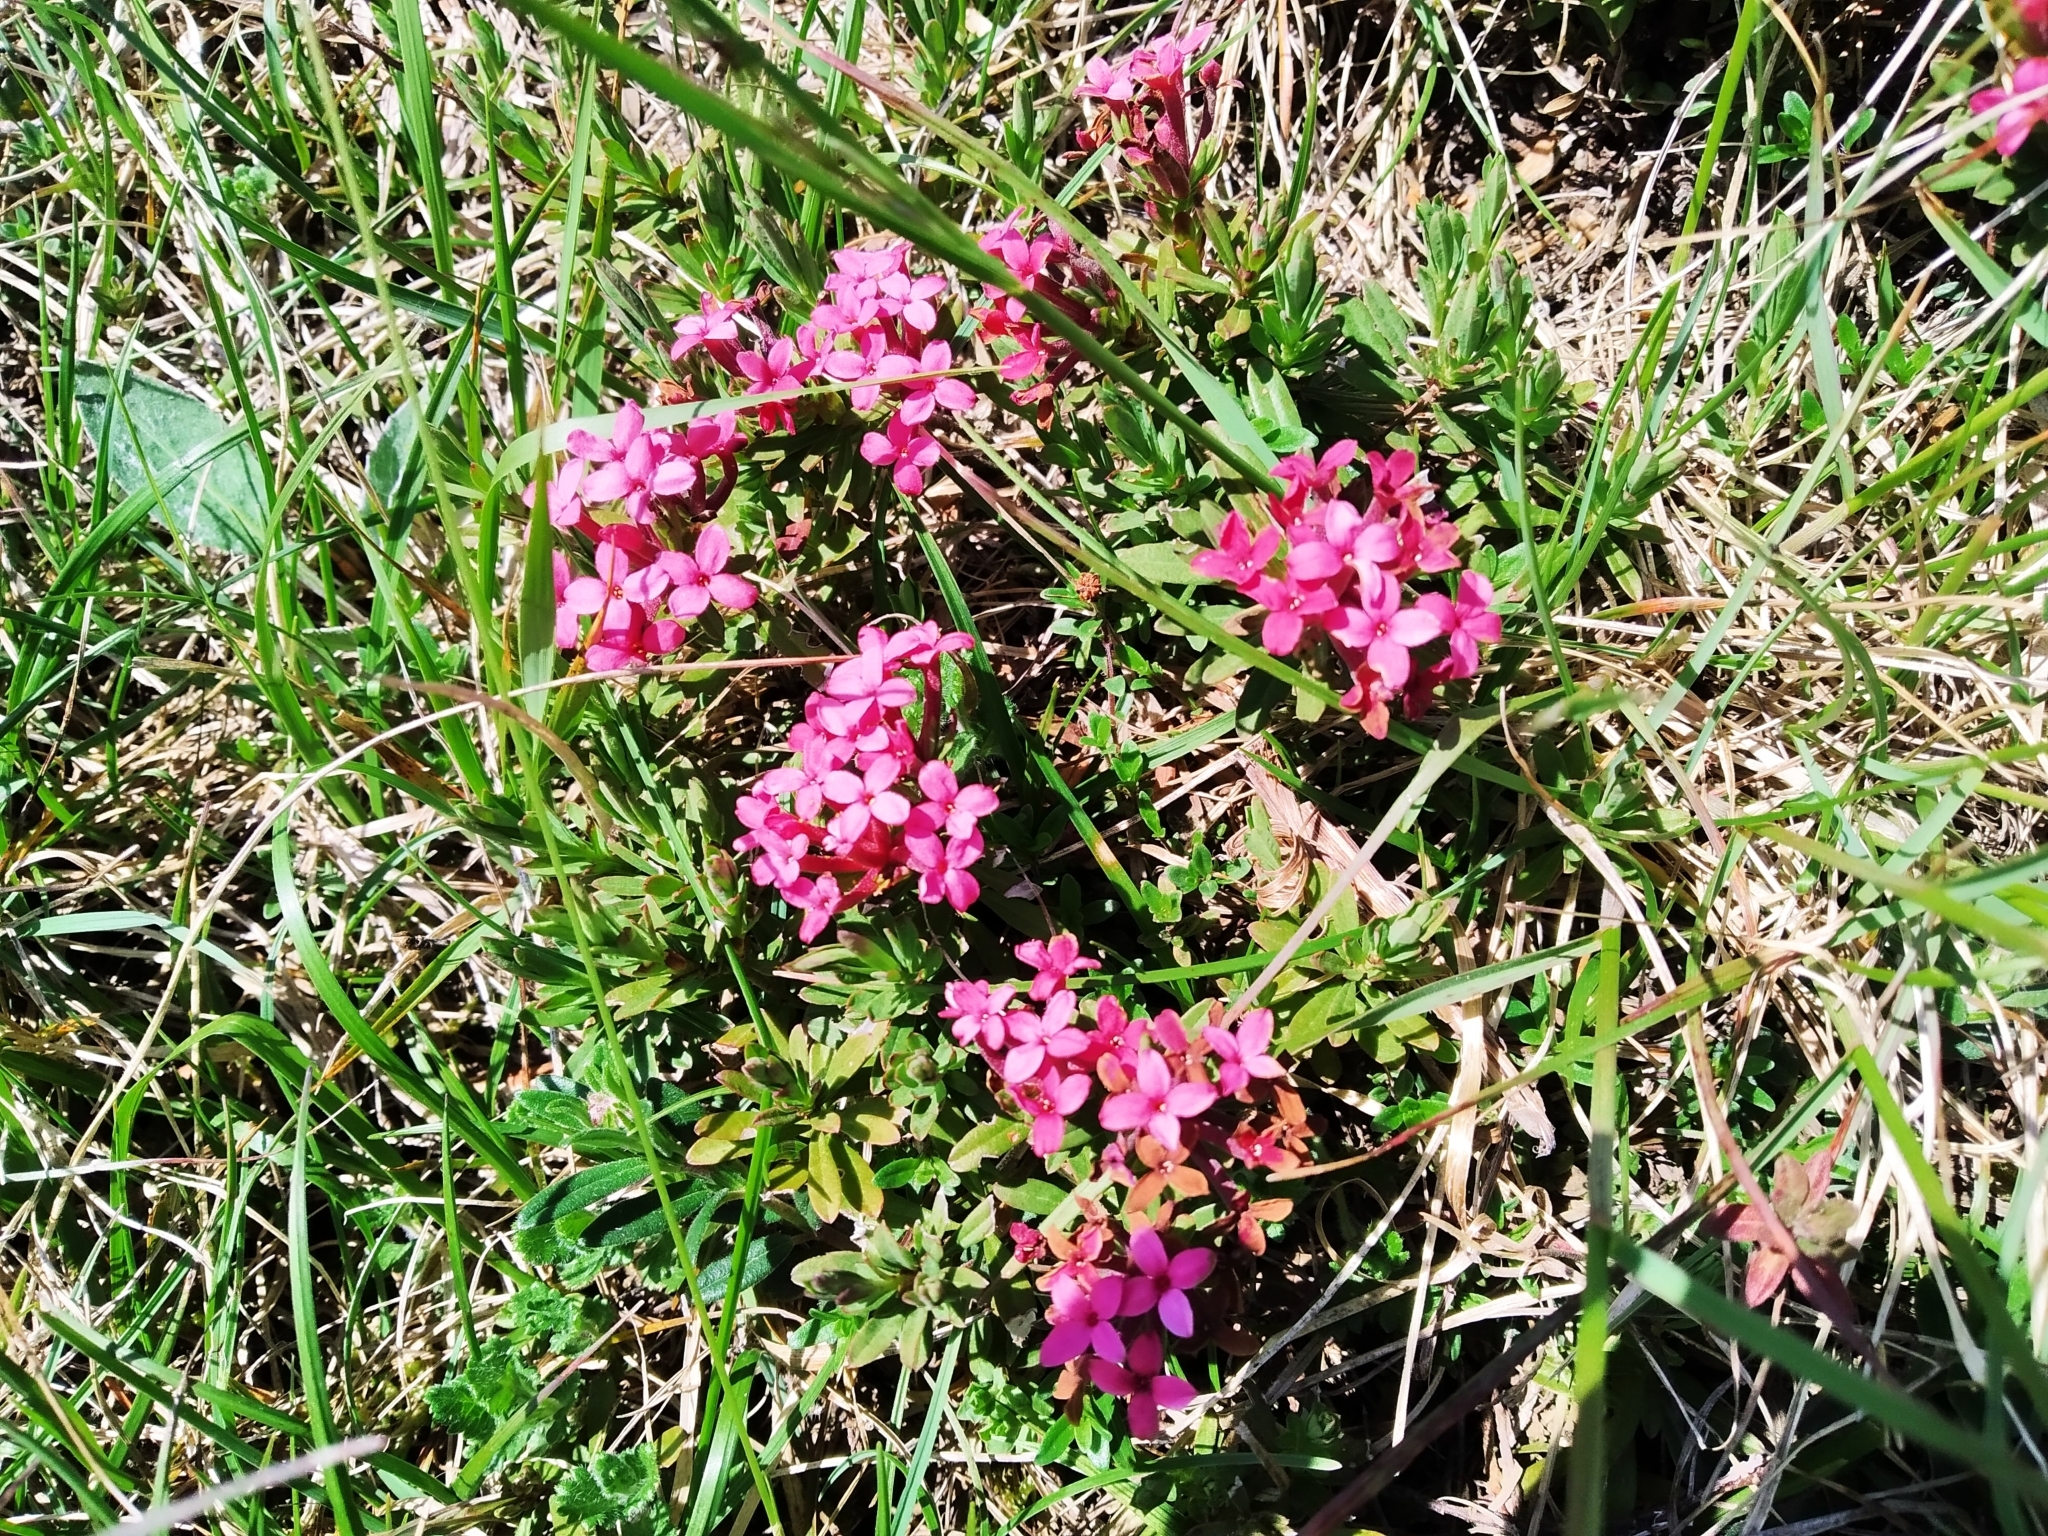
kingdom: Plantae
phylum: Tracheophyta
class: Magnoliopsida
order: Malvales
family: Thymelaeaceae
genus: Daphne
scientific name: Daphne cneorum
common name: Garland-flower
